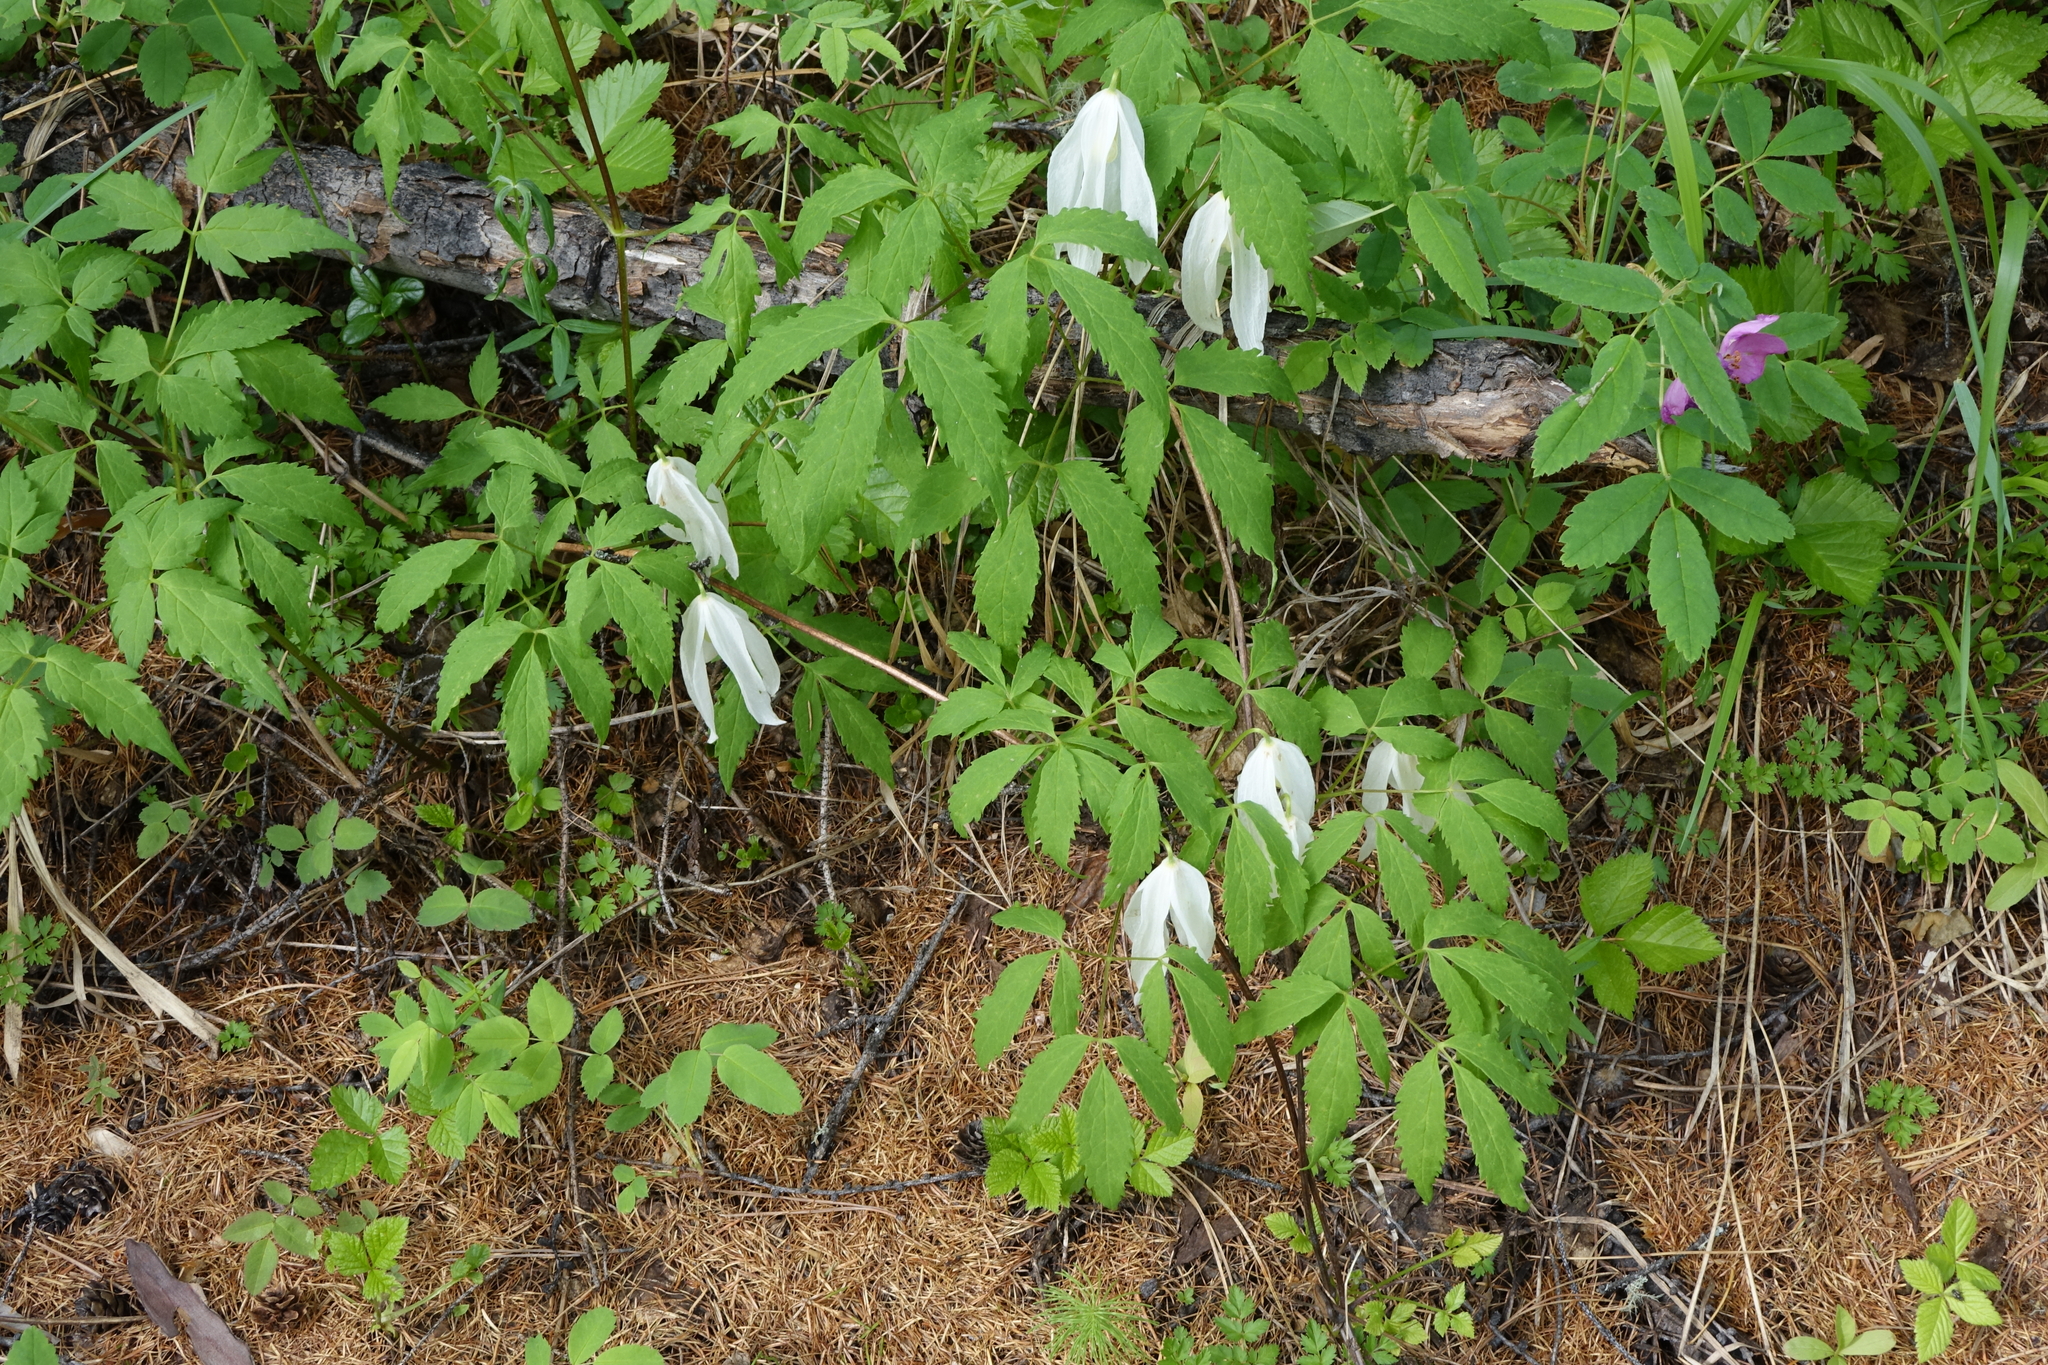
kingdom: Plantae
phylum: Tracheophyta
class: Magnoliopsida
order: Ranunculales
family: Ranunculaceae
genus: Clematis
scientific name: Clematis sibirica
